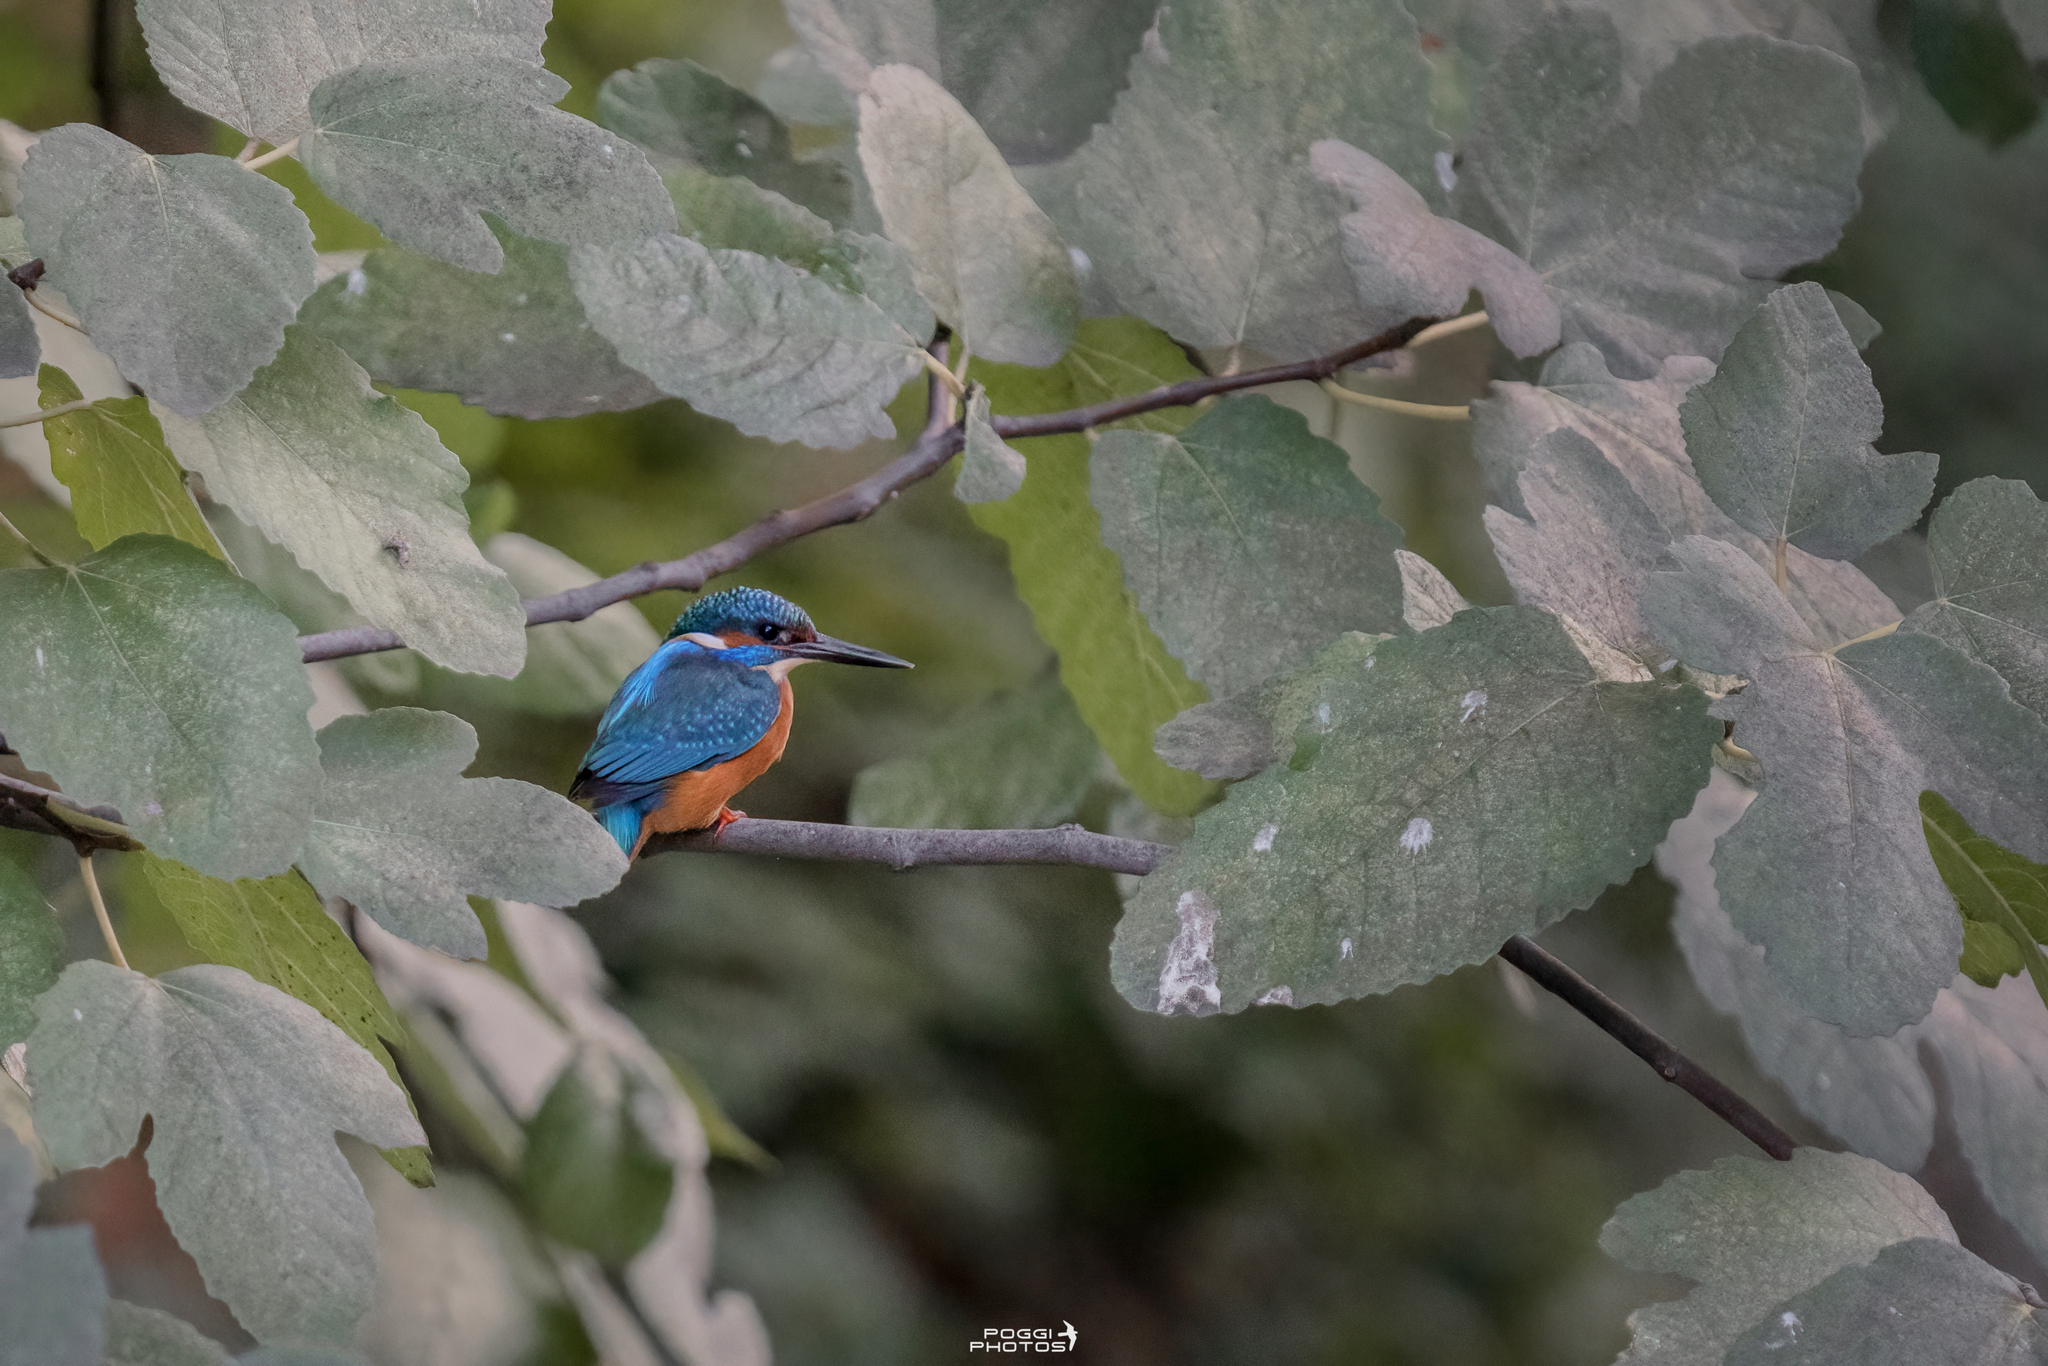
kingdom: Animalia
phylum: Chordata
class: Aves
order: Coraciiformes
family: Alcedinidae
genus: Alcedo
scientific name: Alcedo atthis
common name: Common kingfisher
